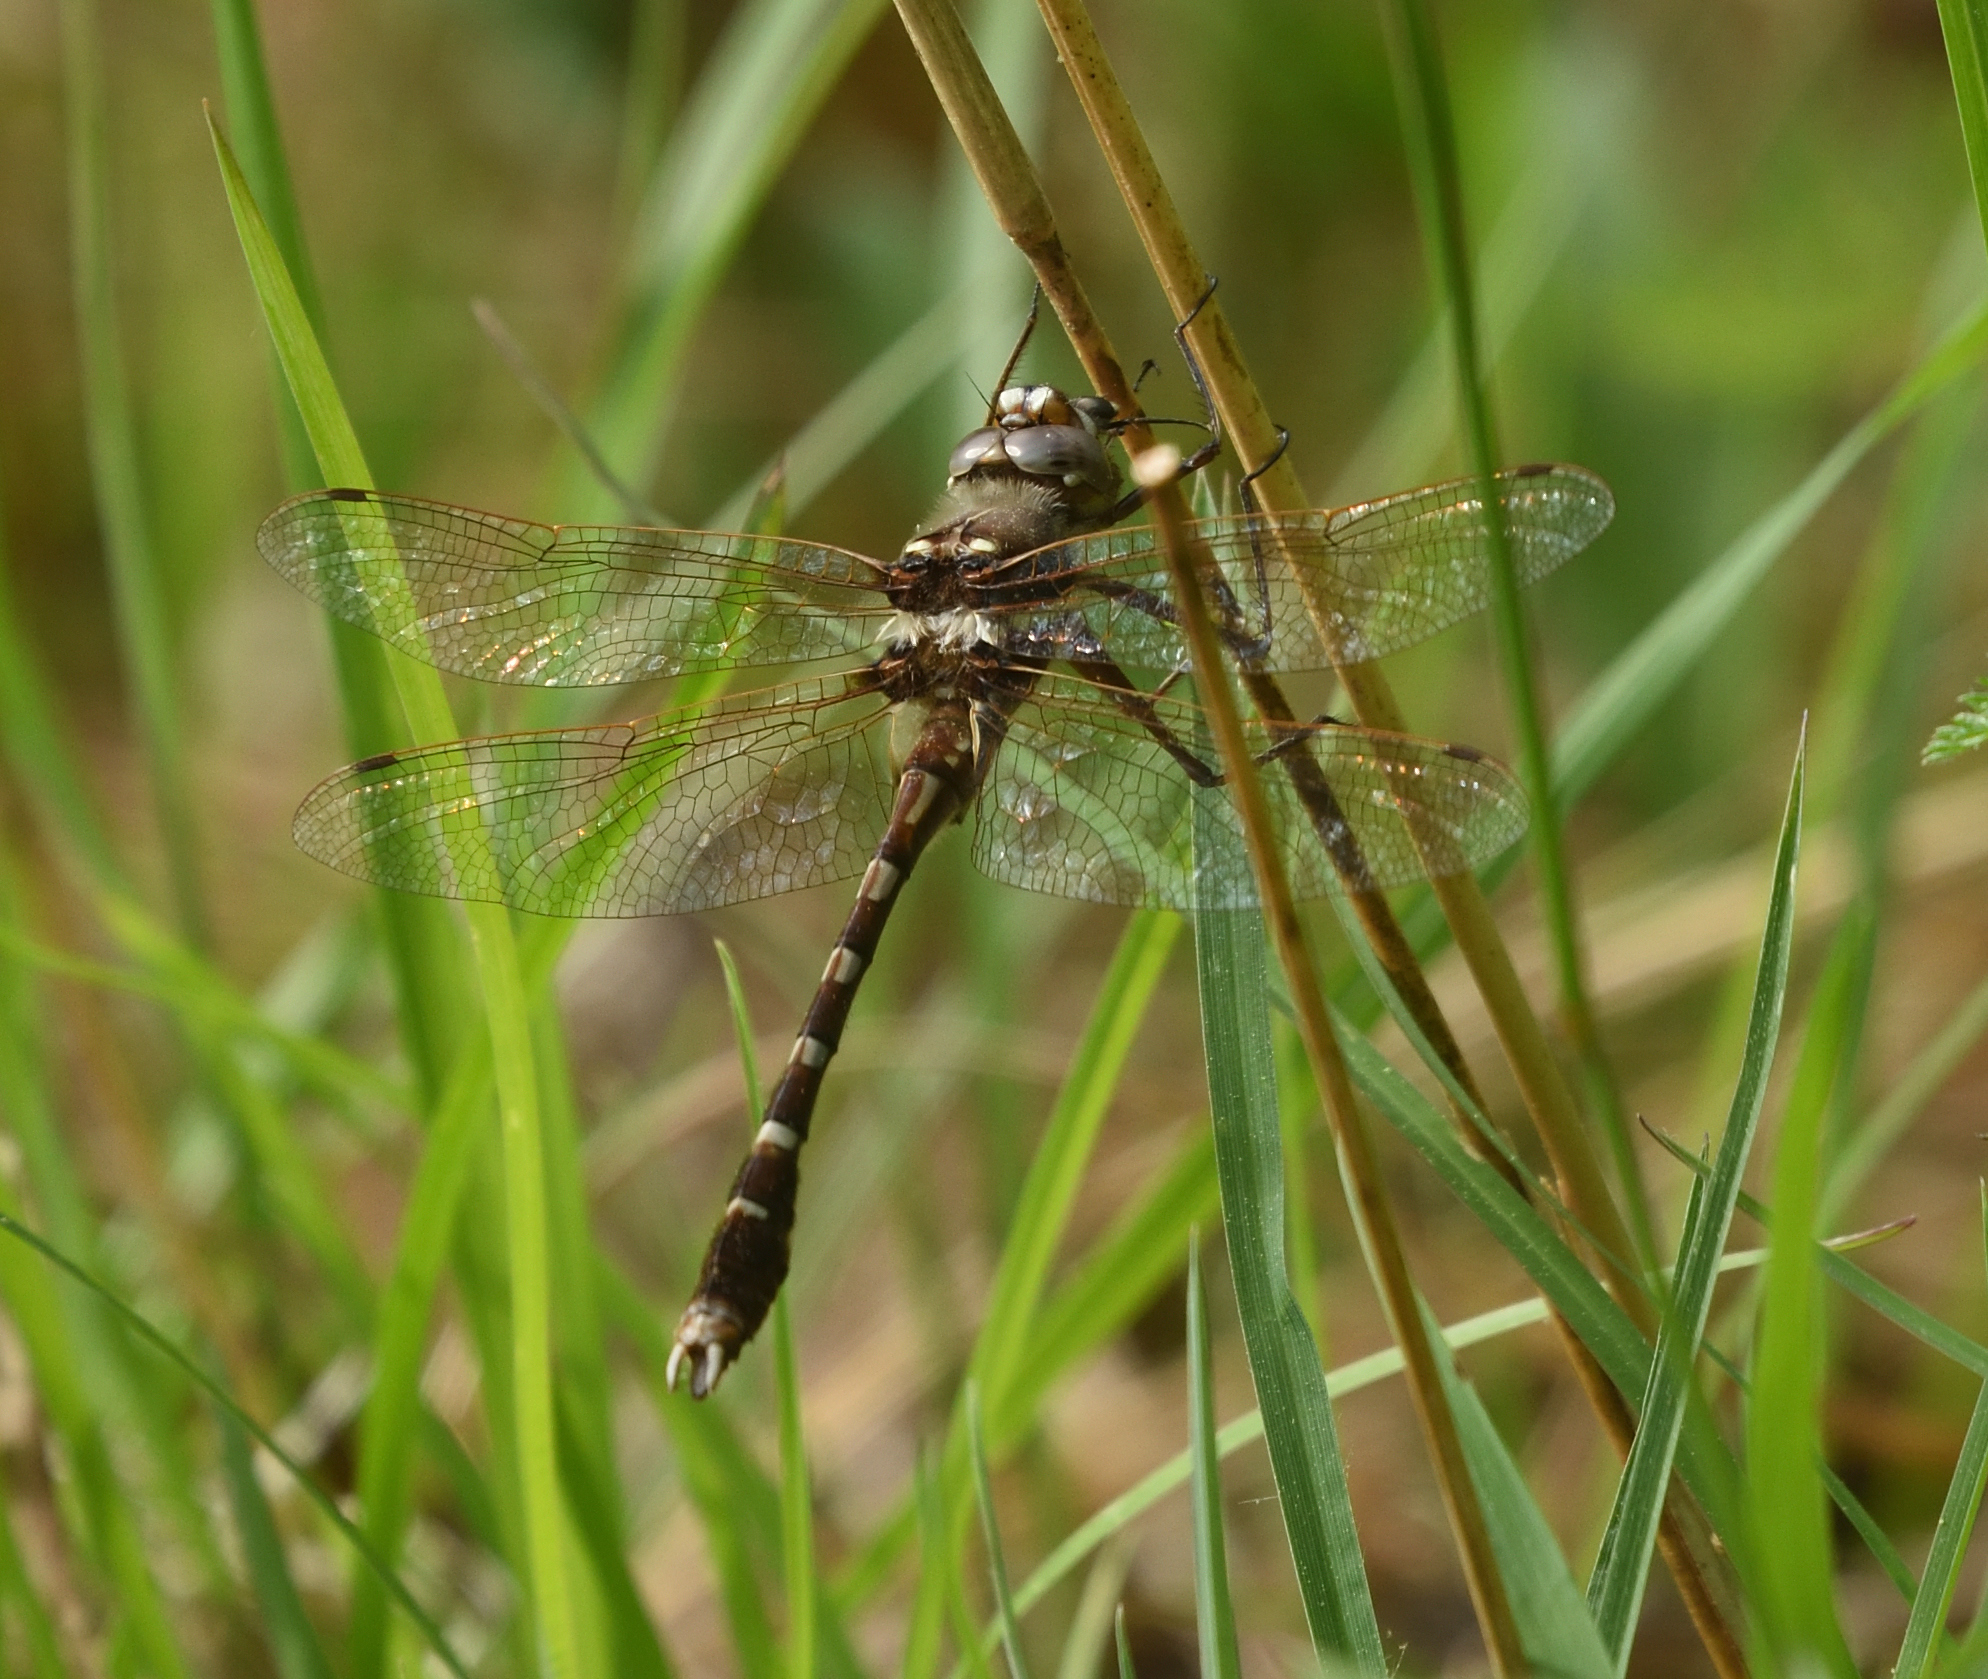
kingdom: Animalia
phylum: Arthropoda
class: Insecta
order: Odonata
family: Macromiidae
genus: Didymops
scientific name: Didymops transversa
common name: Stream cruiser
